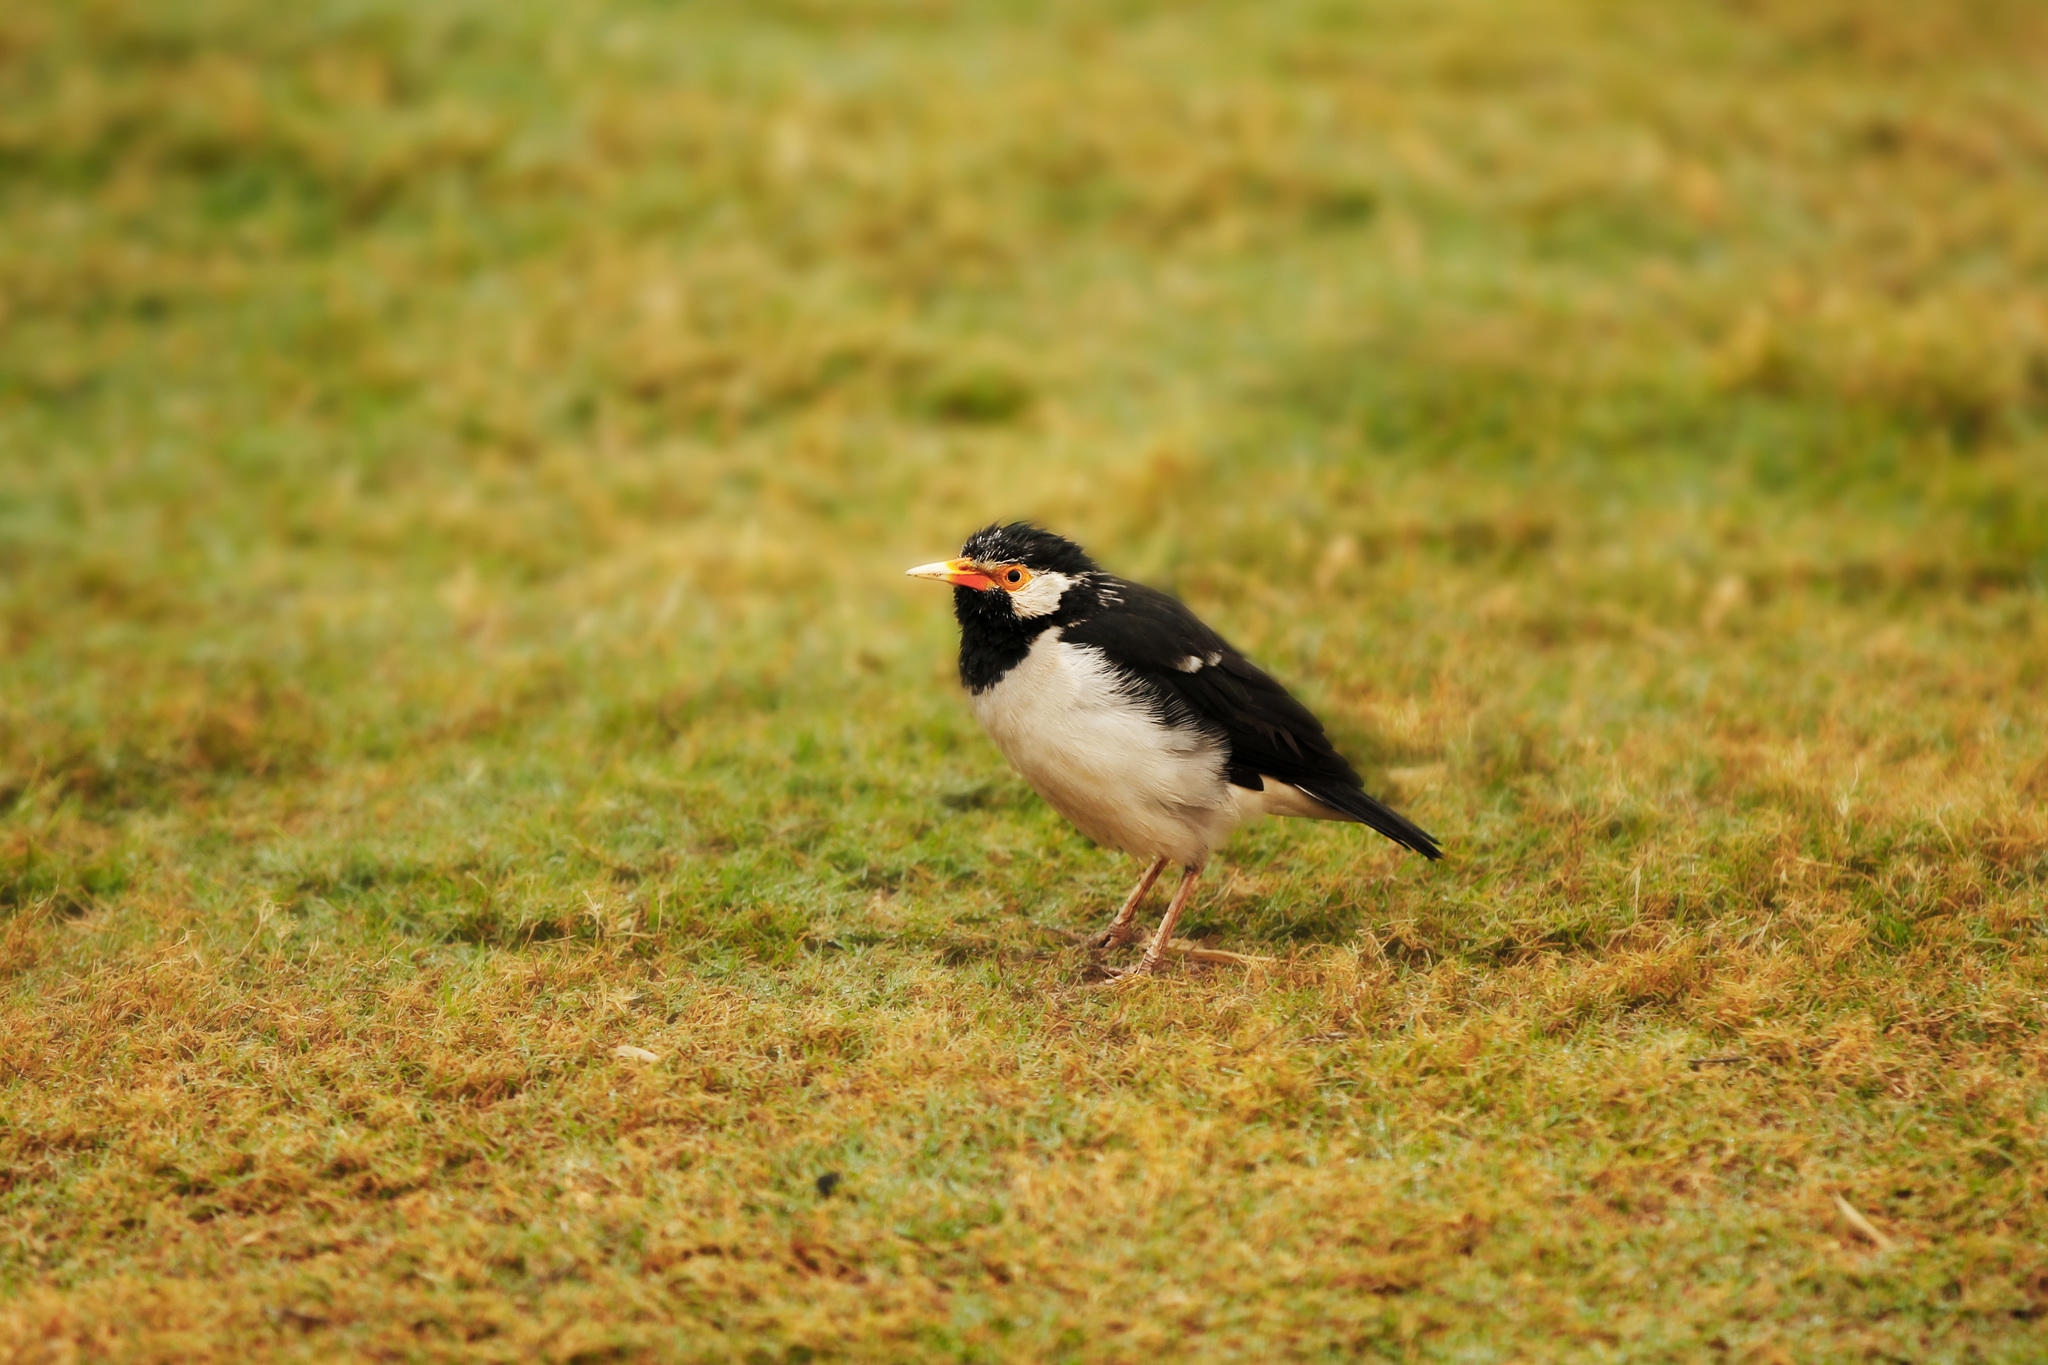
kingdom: Animalia
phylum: Chordata
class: Aves
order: Passeriformes
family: Sturnidae
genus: Gracupica
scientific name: Gracupica contra
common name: Pied myna
